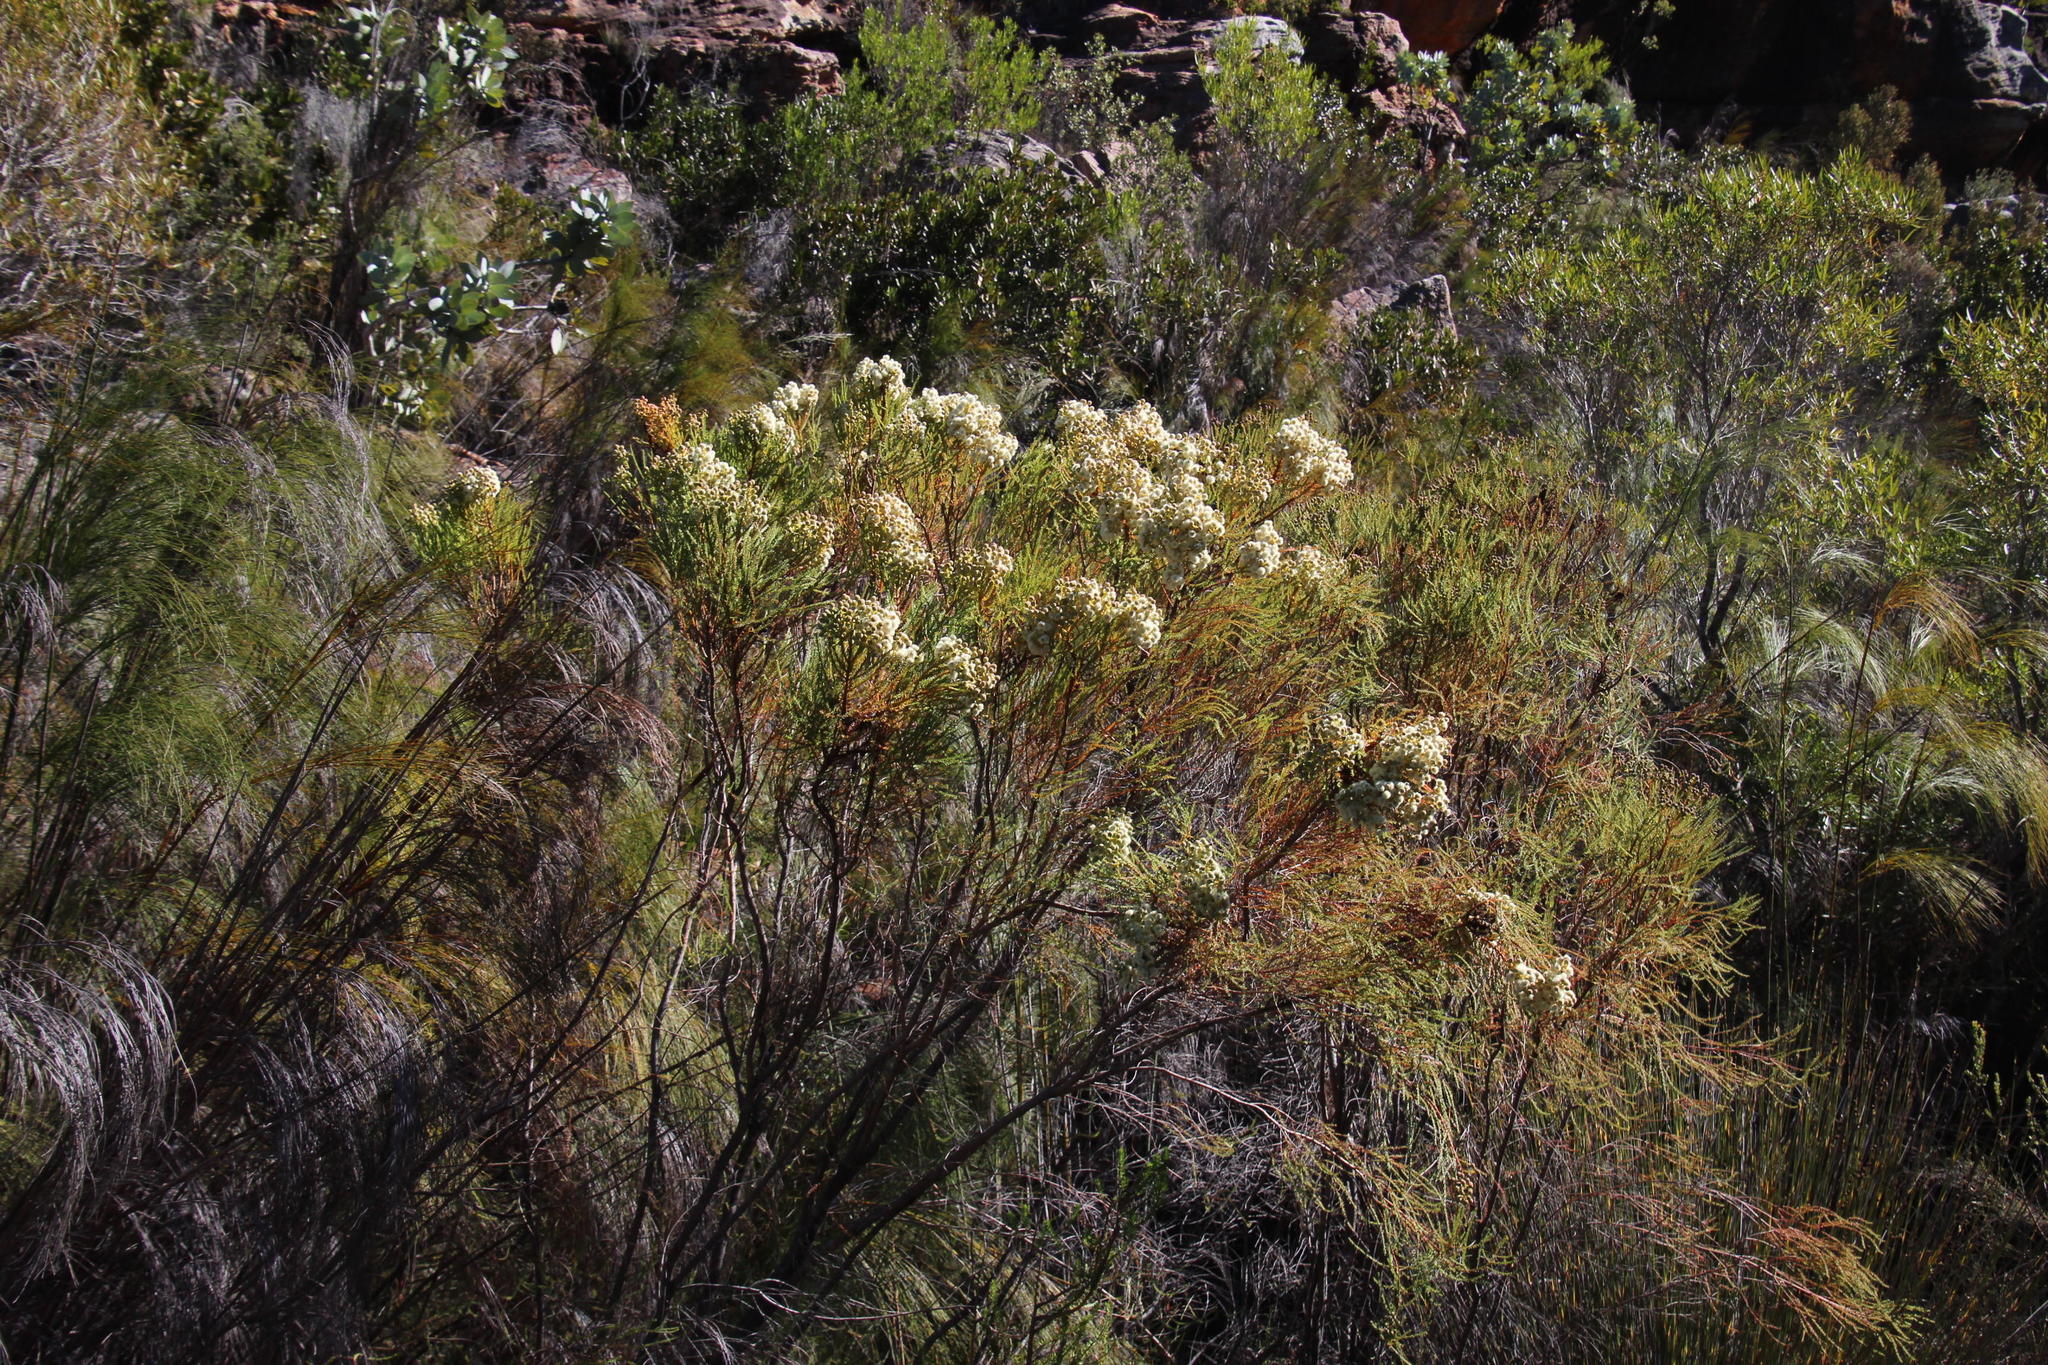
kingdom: Plantae
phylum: Tracheophyta
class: Magnoliopsida
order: Bruniales
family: Bruniaceae
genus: Berzelia
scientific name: Berzelia lanuginosa
